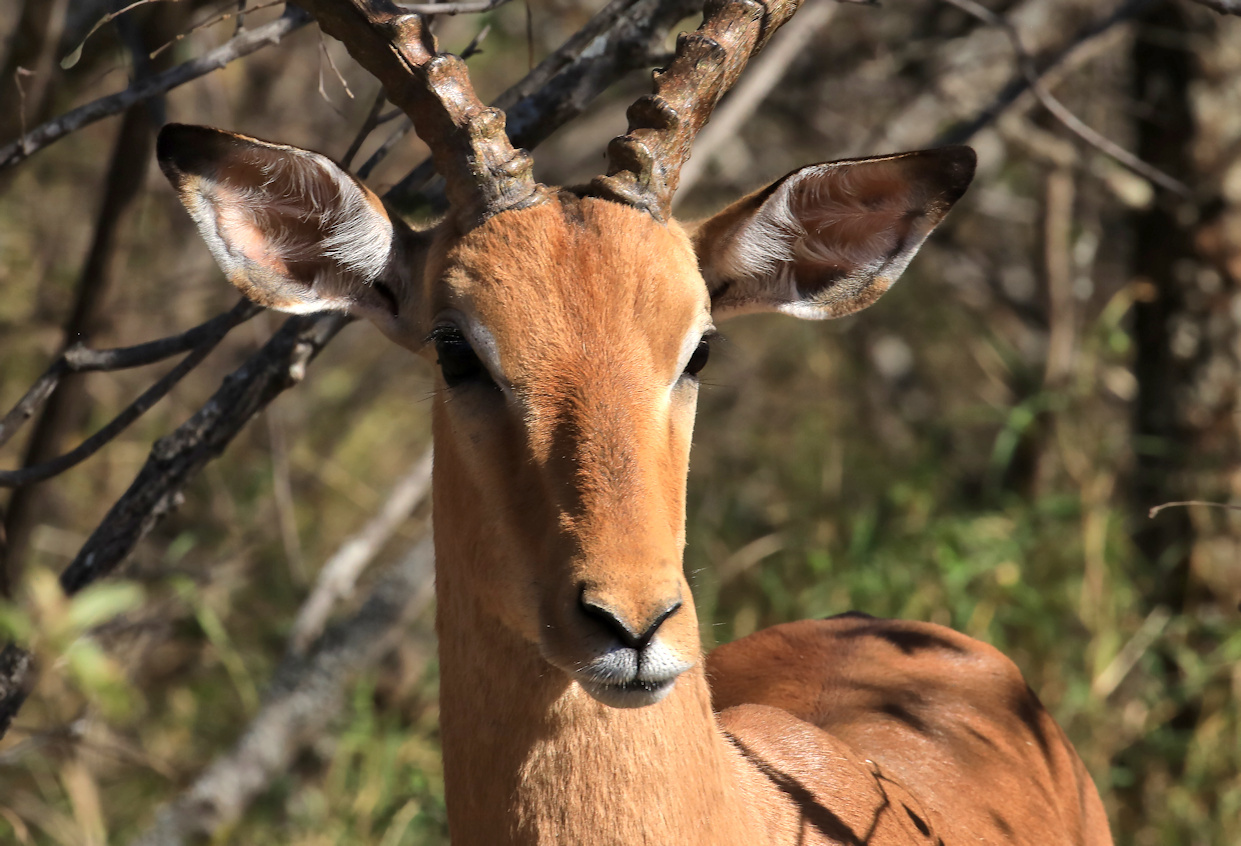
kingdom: Animalia
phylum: Chordata
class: Mammalia
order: Artiodactyla
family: Bovidae
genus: Aepyceros
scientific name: Aepyceros melampus
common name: Impala
